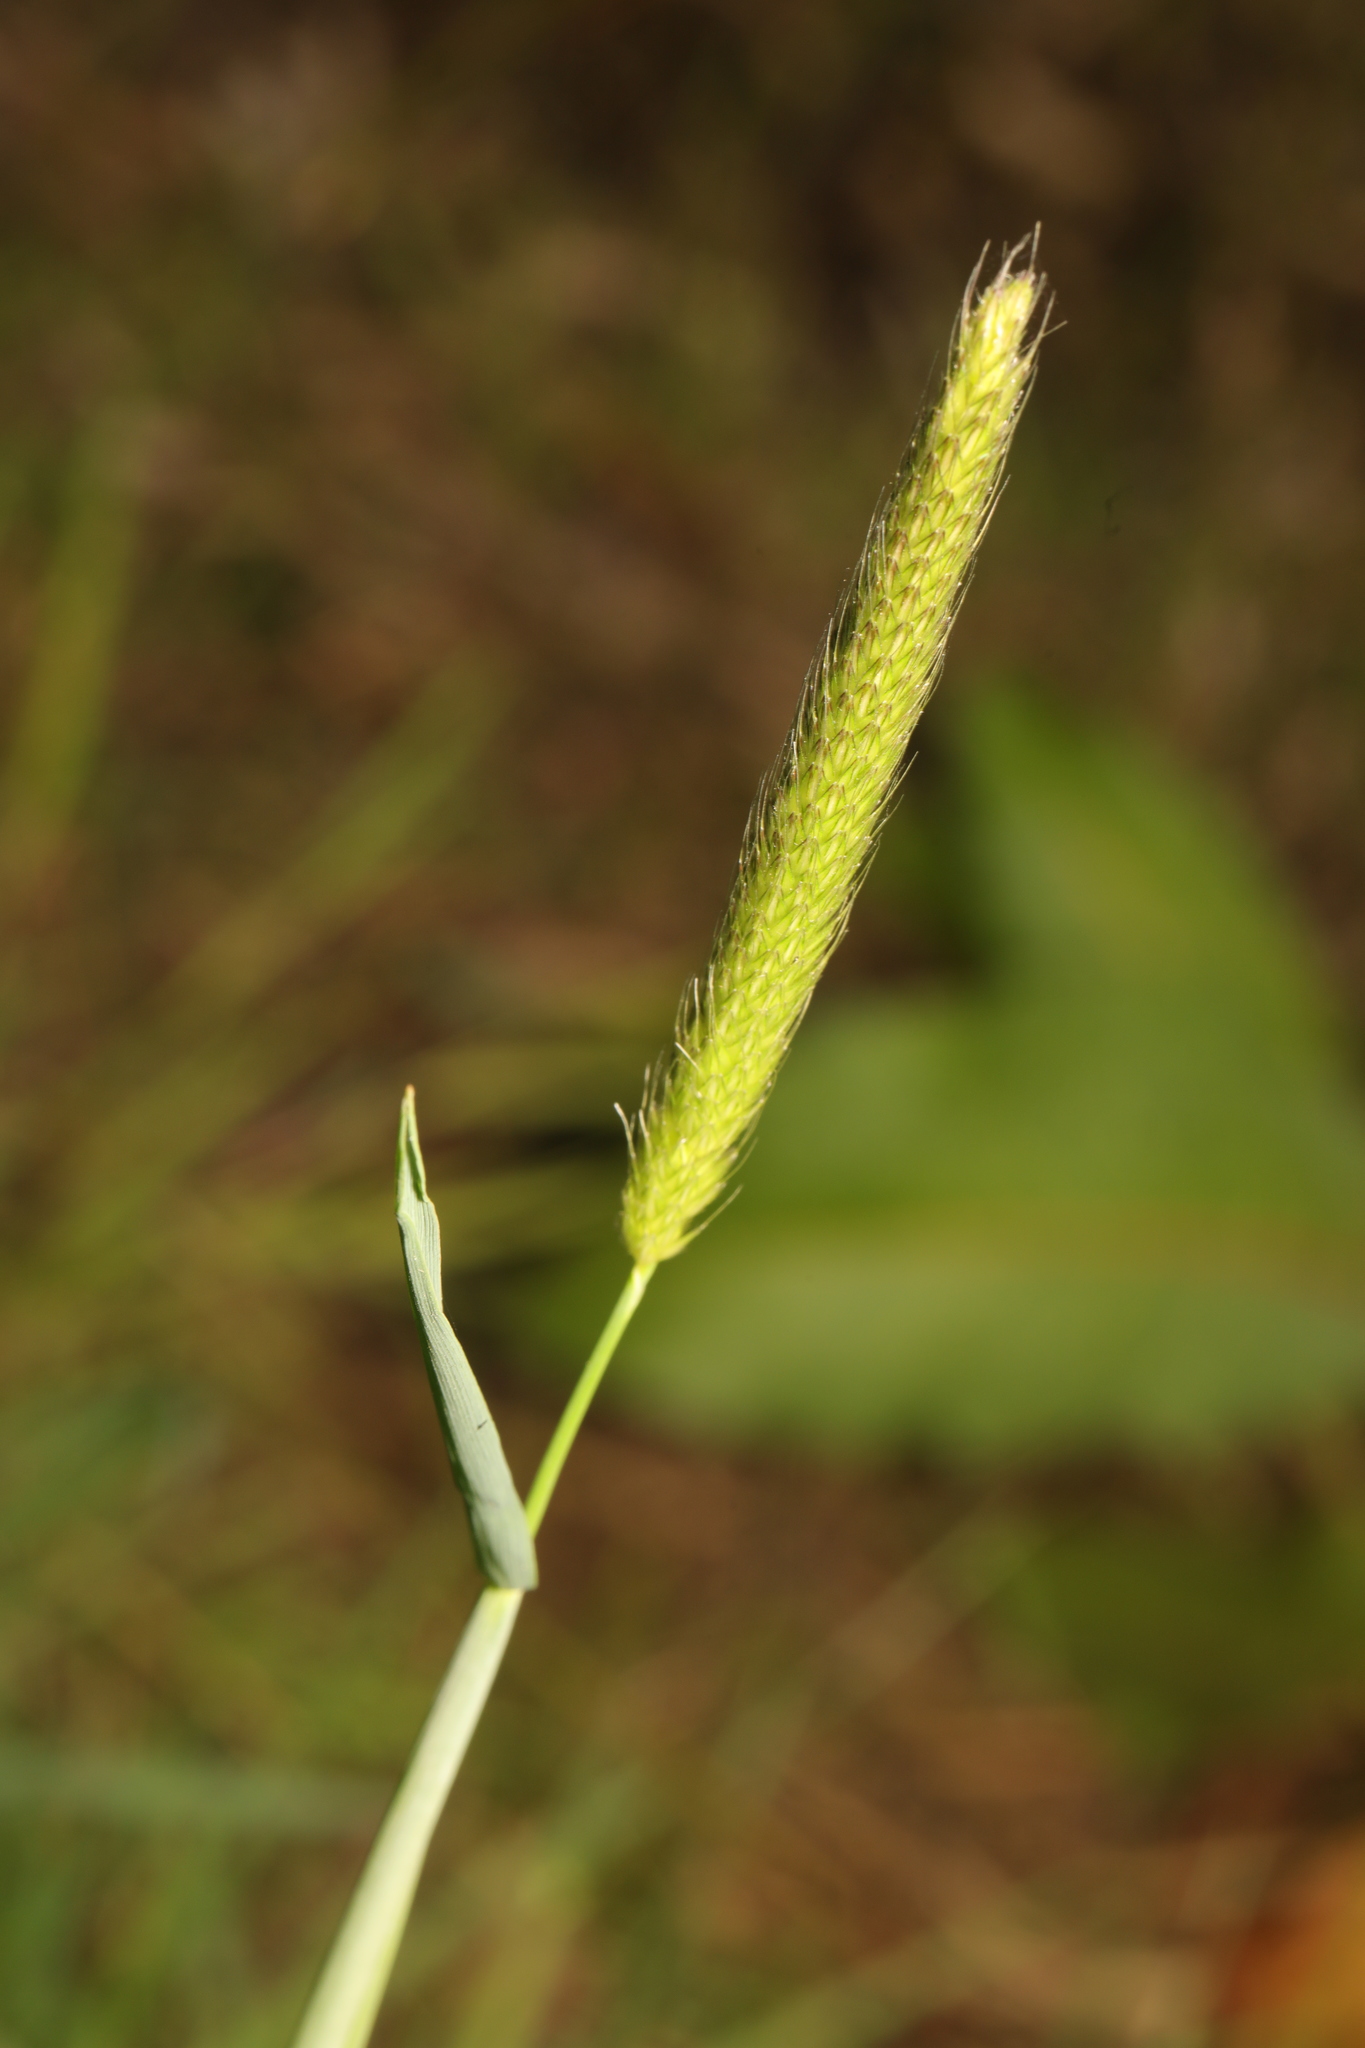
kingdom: Plantae
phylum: Tracheophyta
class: Liliopsida
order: Poales
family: Poaceae
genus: Alopecurus
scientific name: Alopecurus pratensis
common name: Meadow foxtail
